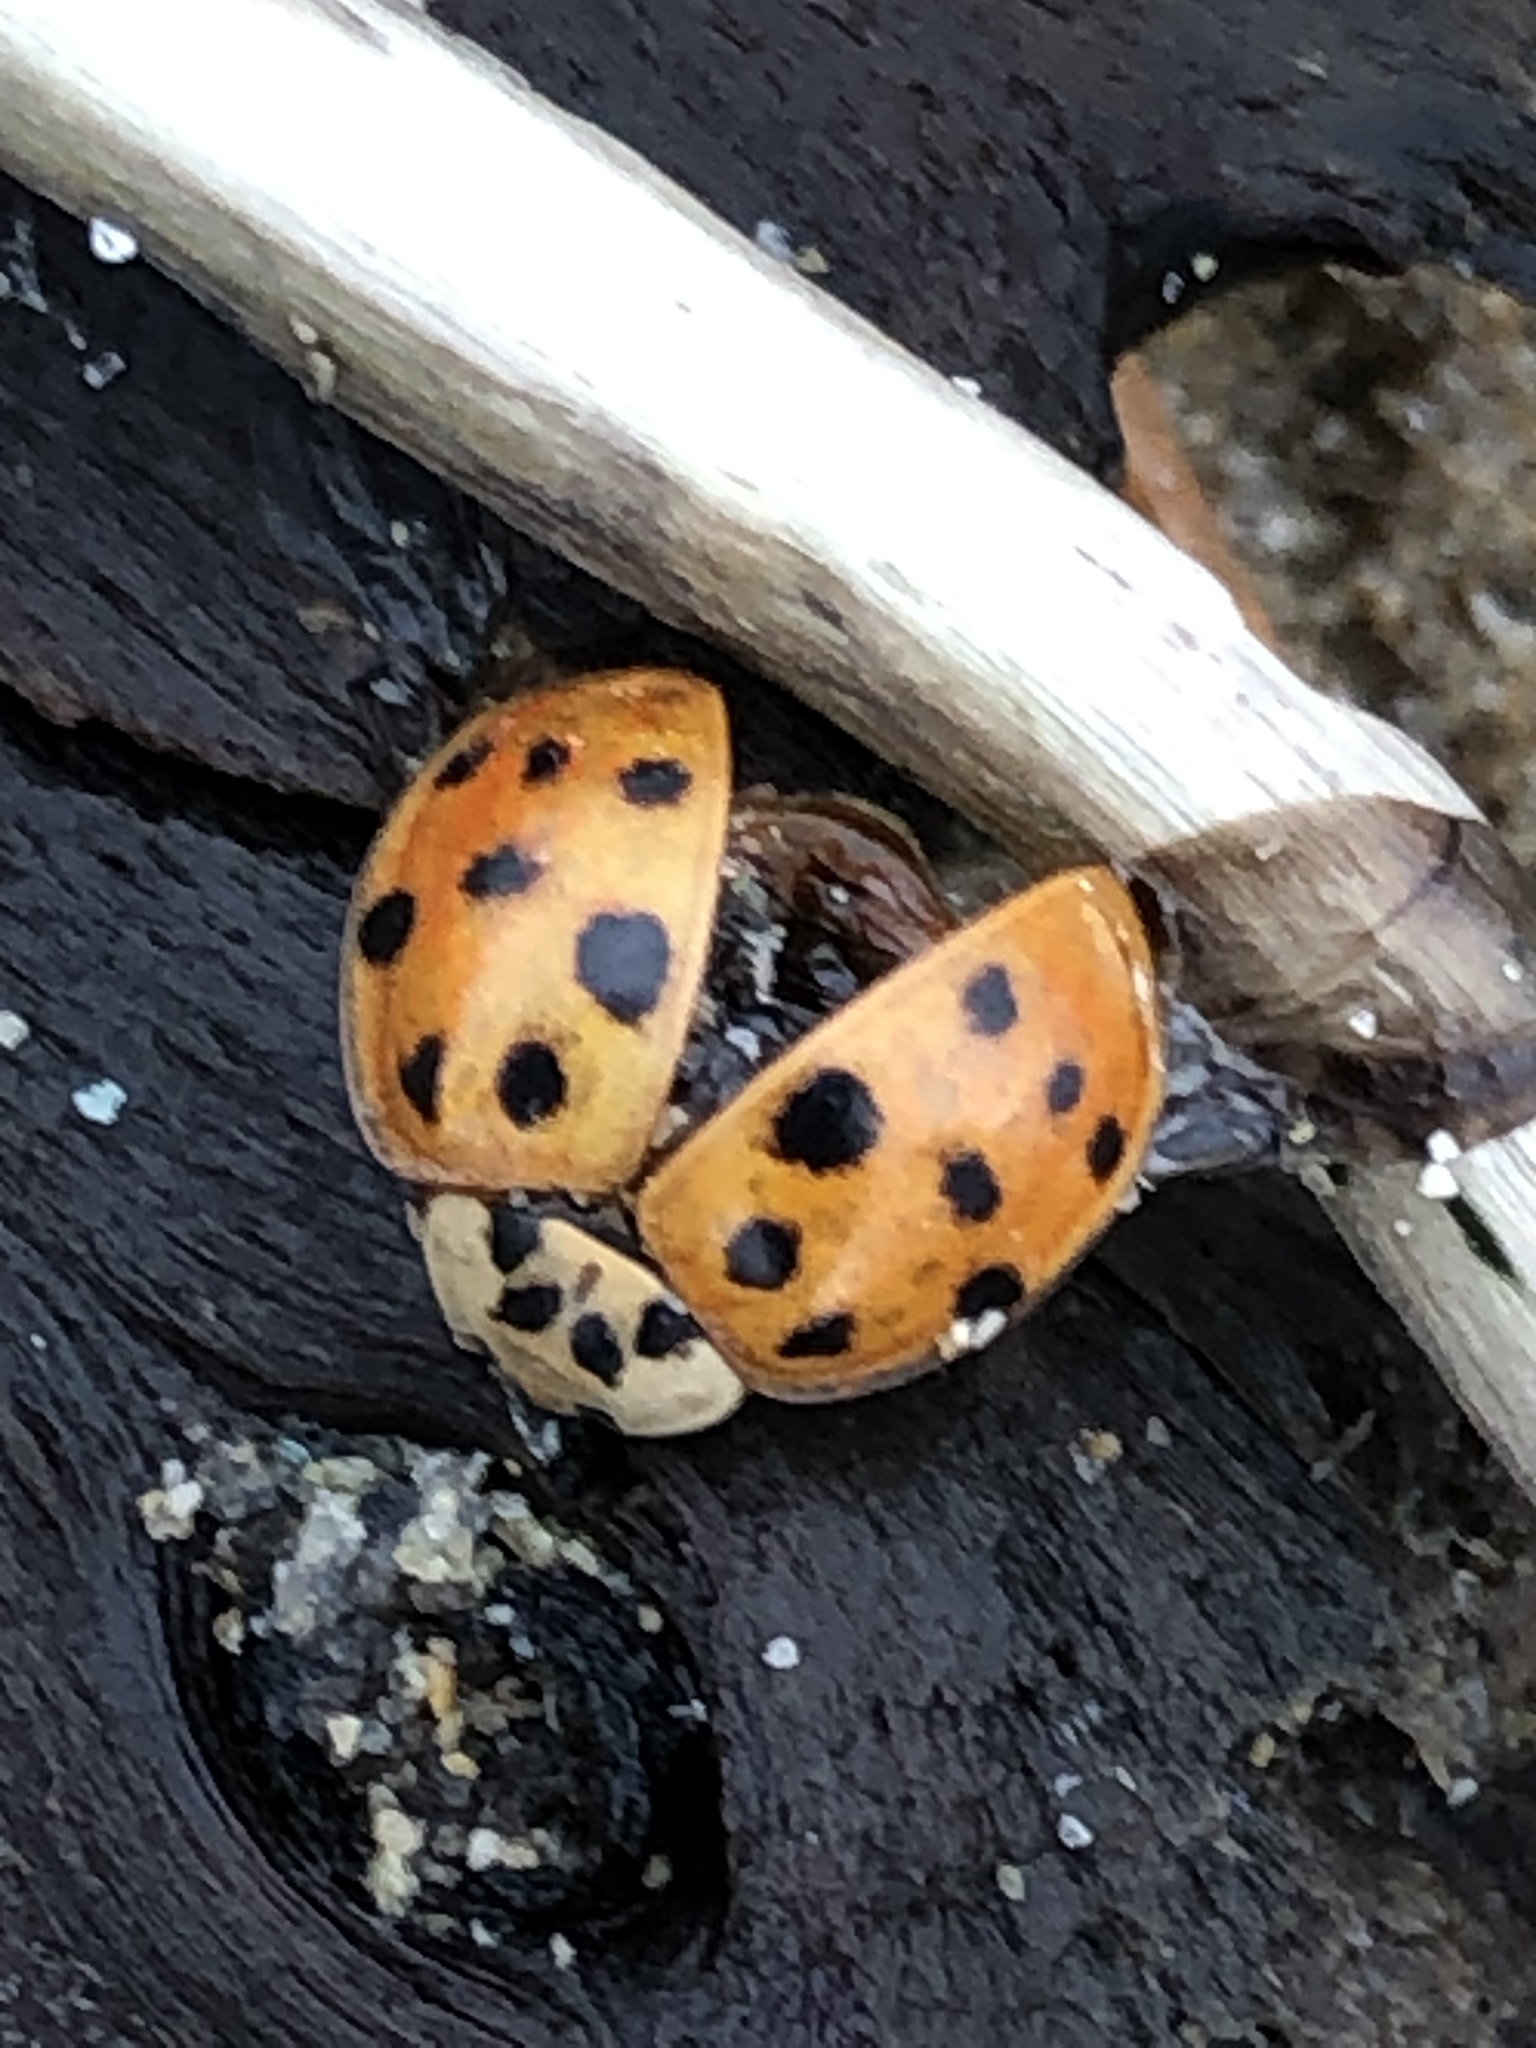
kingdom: Animalia
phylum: Arthropoda
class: Insecta
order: Coleoptera
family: Coccinellidae
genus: Harmonia
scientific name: Harmonia axyridis
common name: Harlequin ladybird
